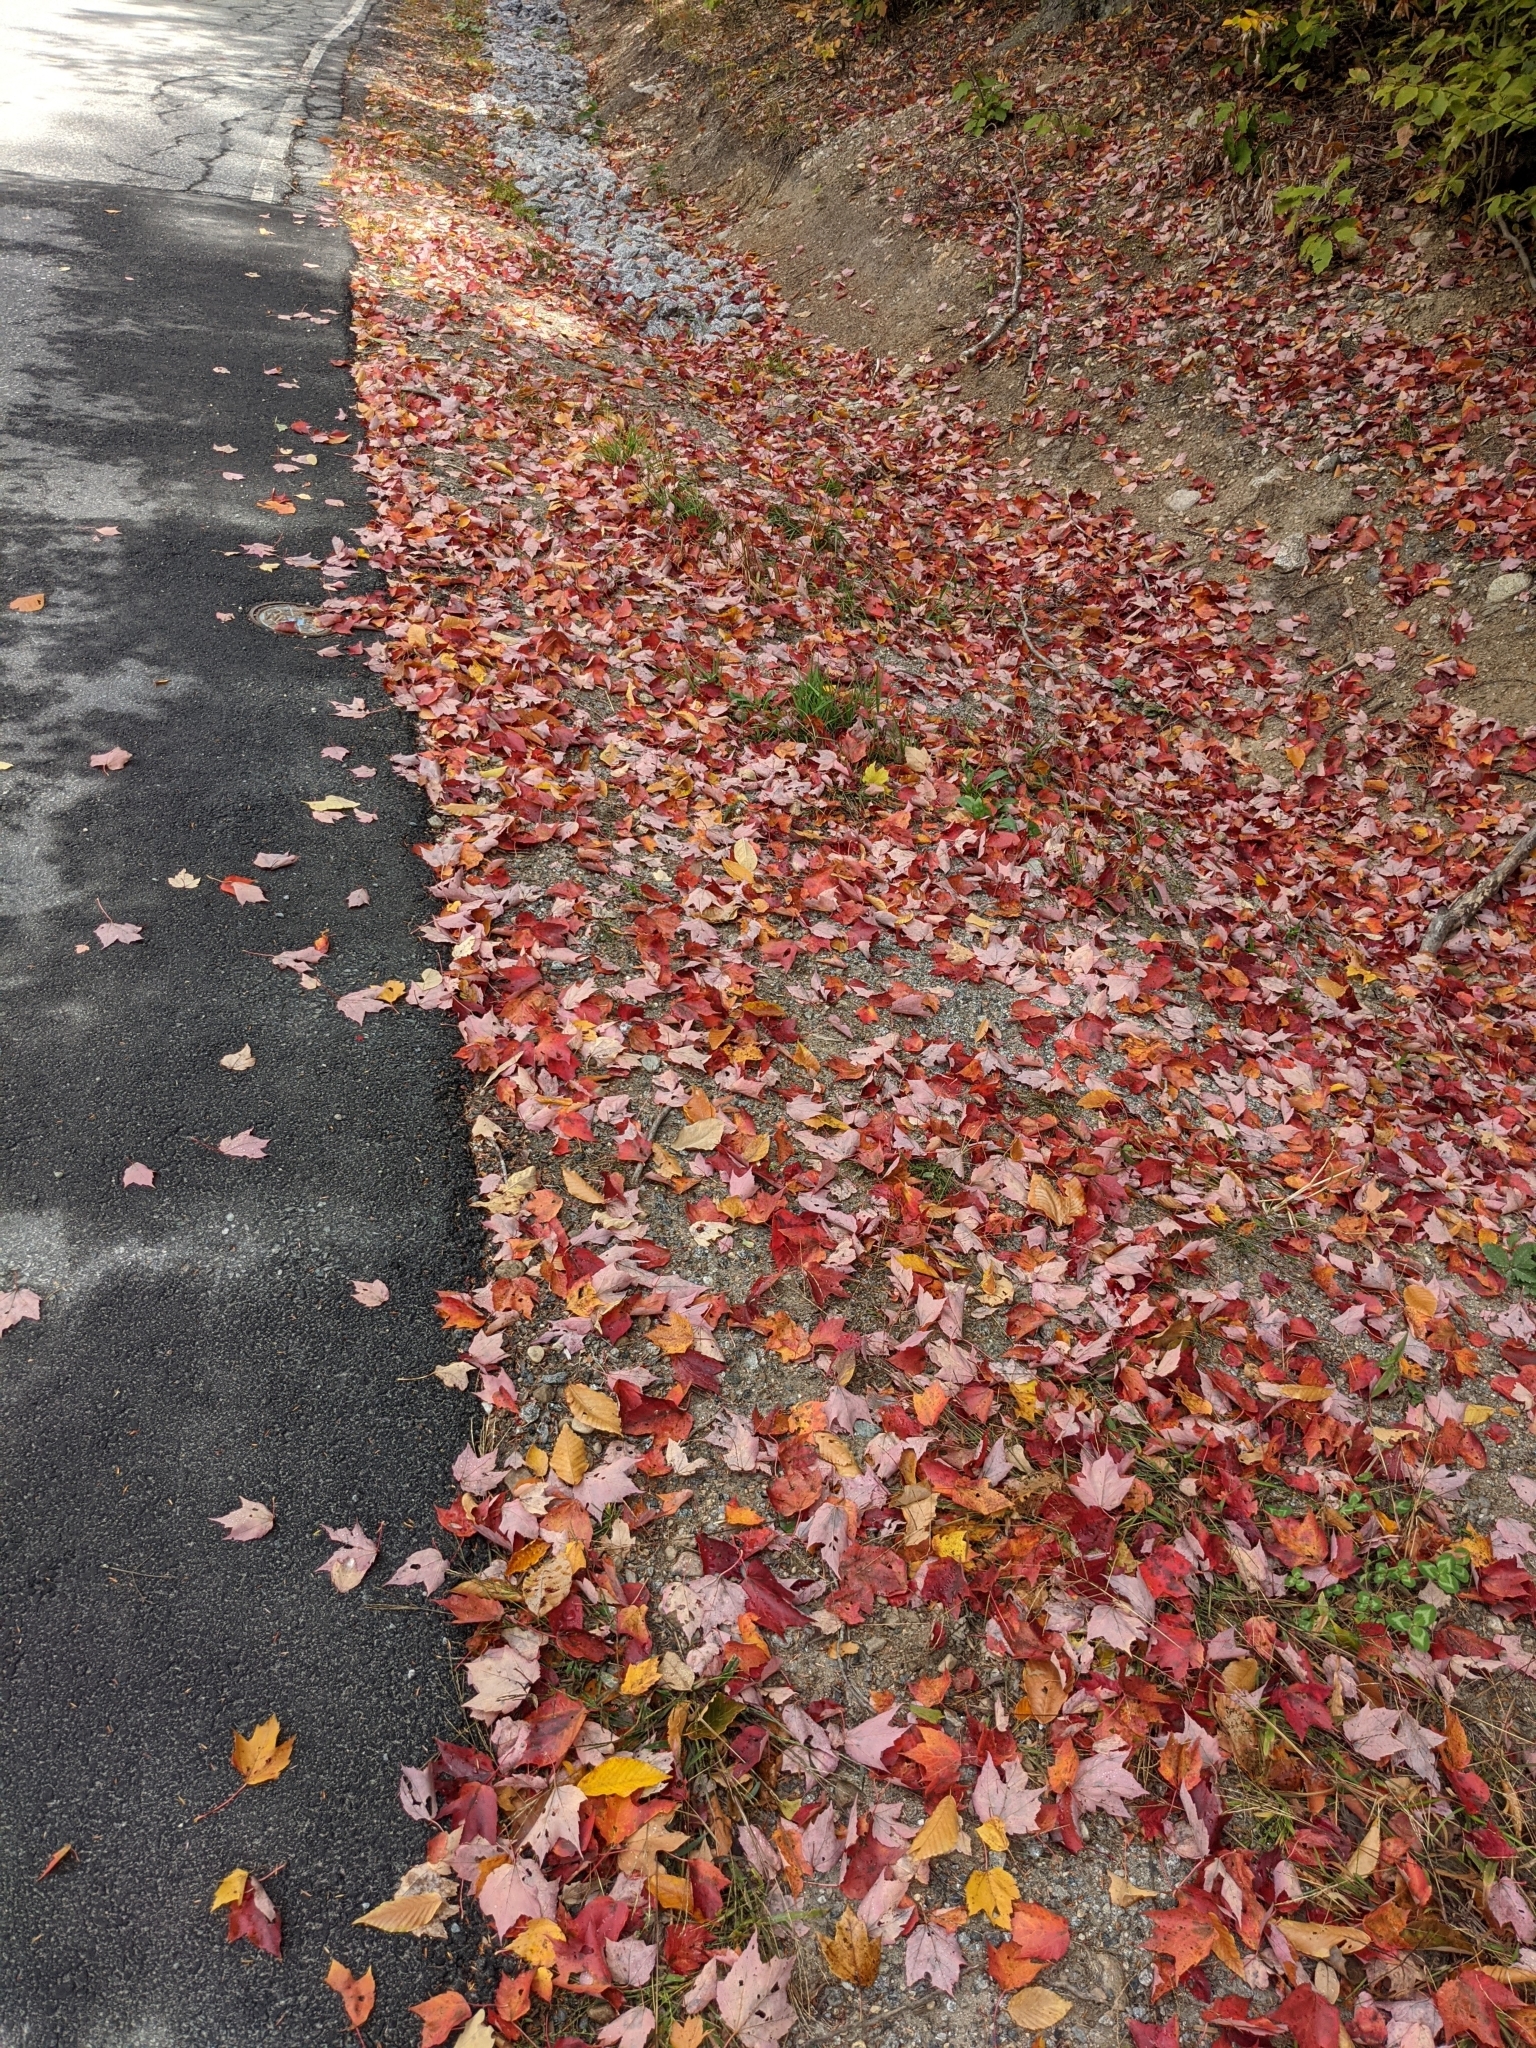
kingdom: Plantae
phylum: Tracheophyta
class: Magnoliopsida
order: Sapindales
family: Sapindaceae
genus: Acer
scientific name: Acer rubrum
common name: Red maple
